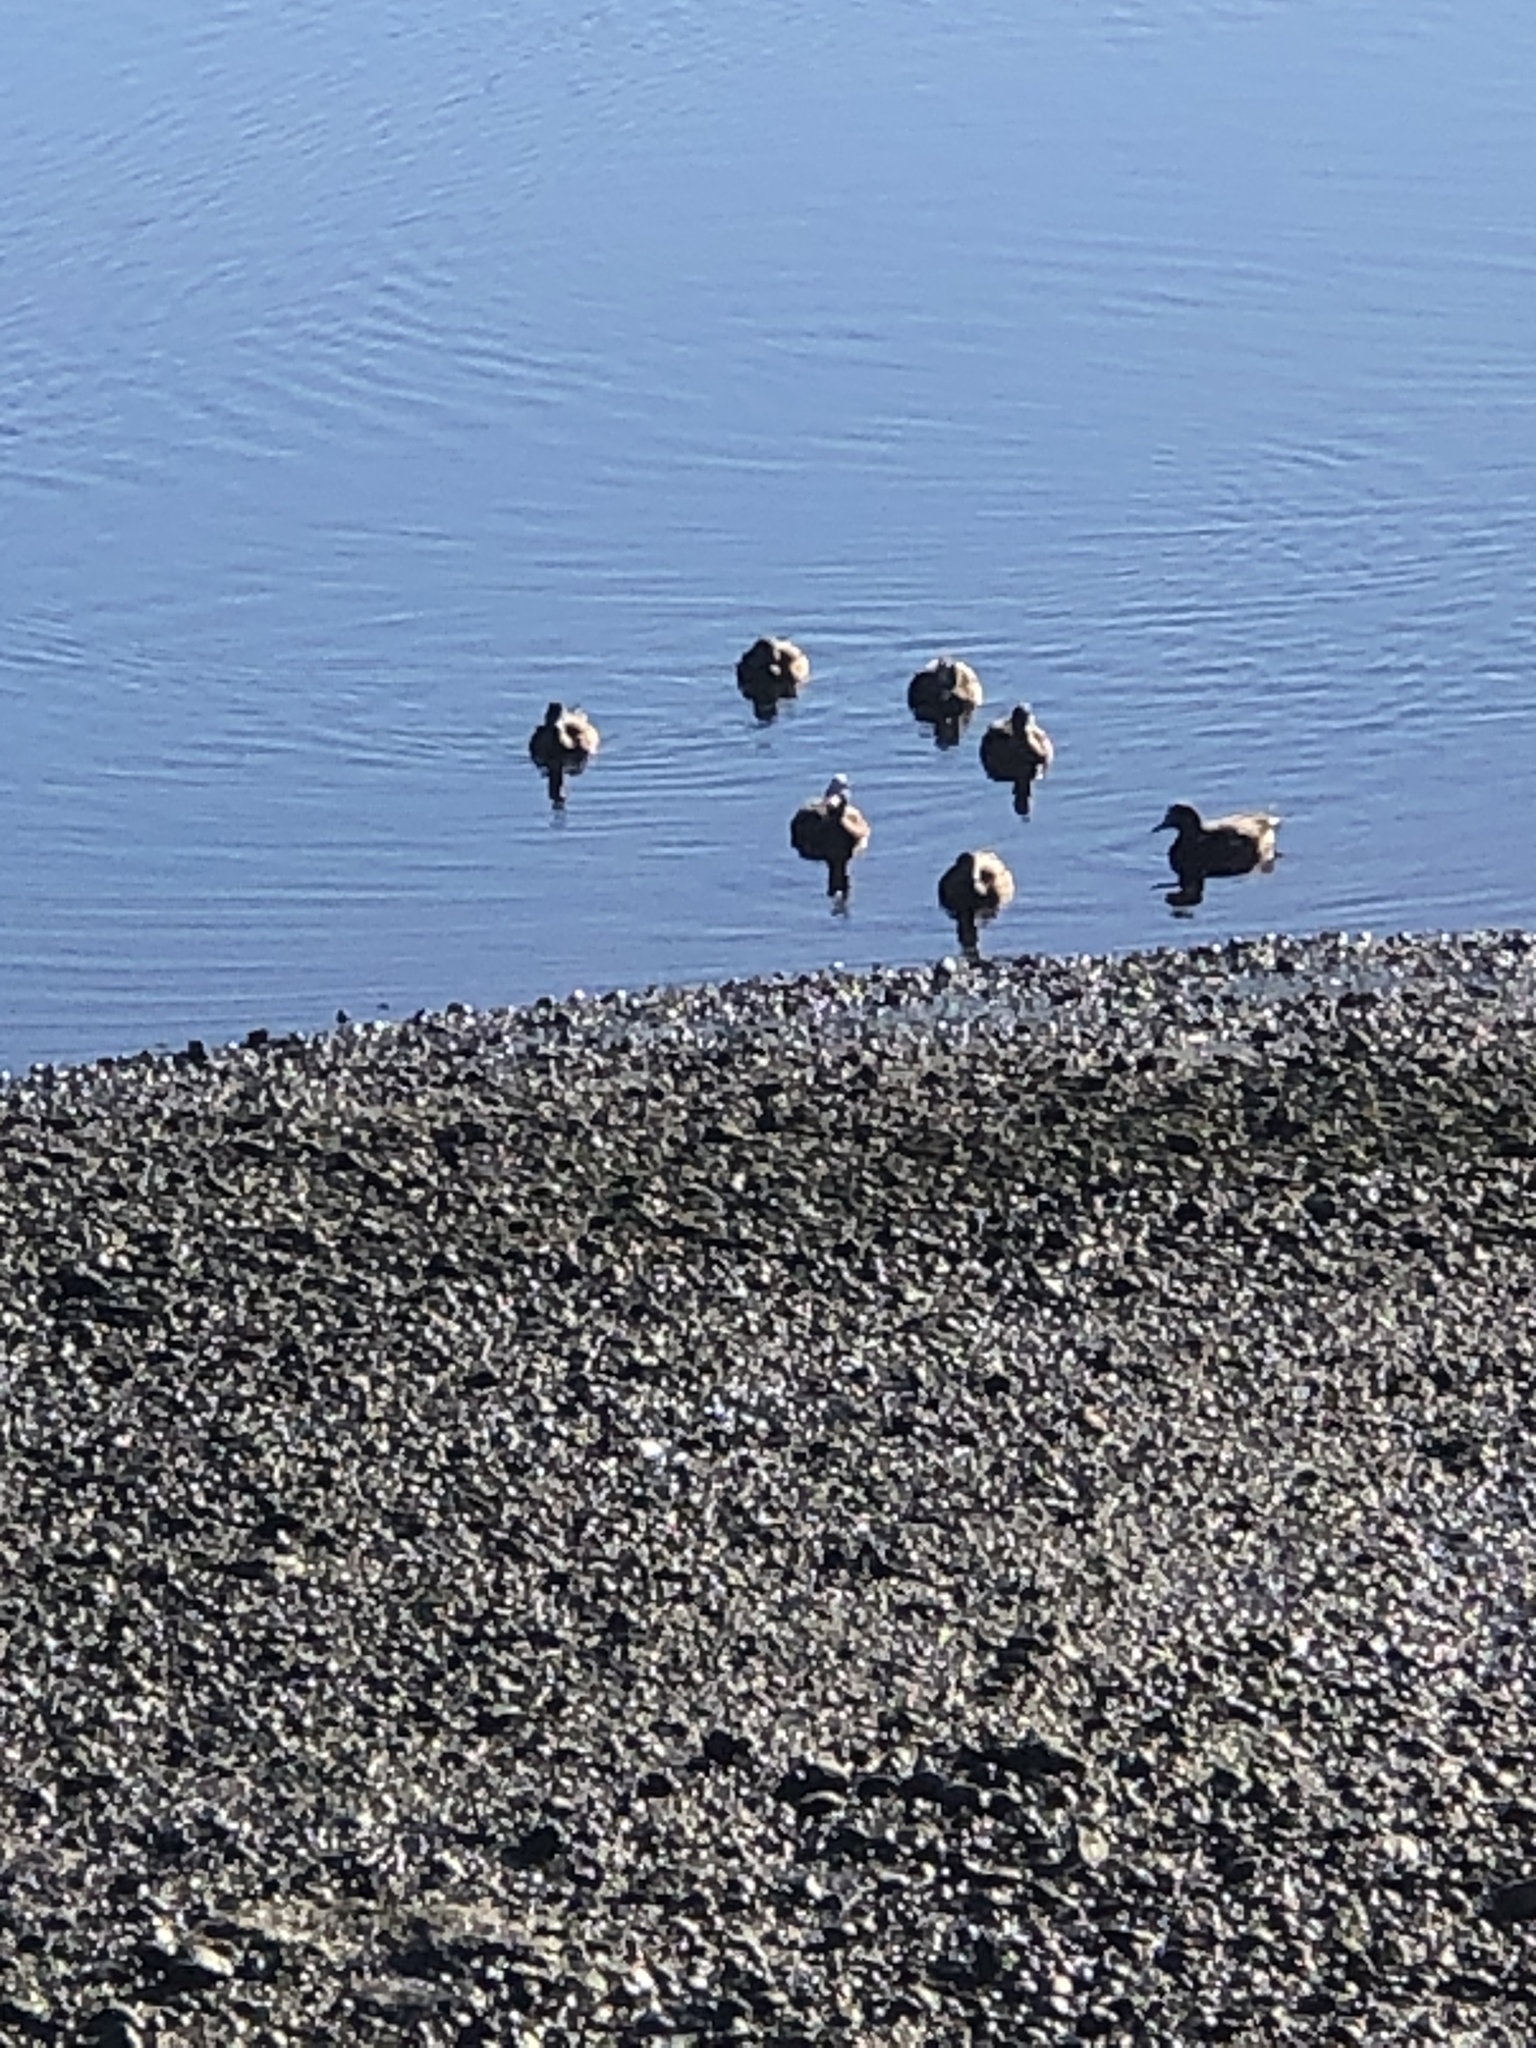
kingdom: Animalia
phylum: Chordata
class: Aves
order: Anseriformes
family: Anatidae
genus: Mareca
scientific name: Mareca americana
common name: American wigeon
